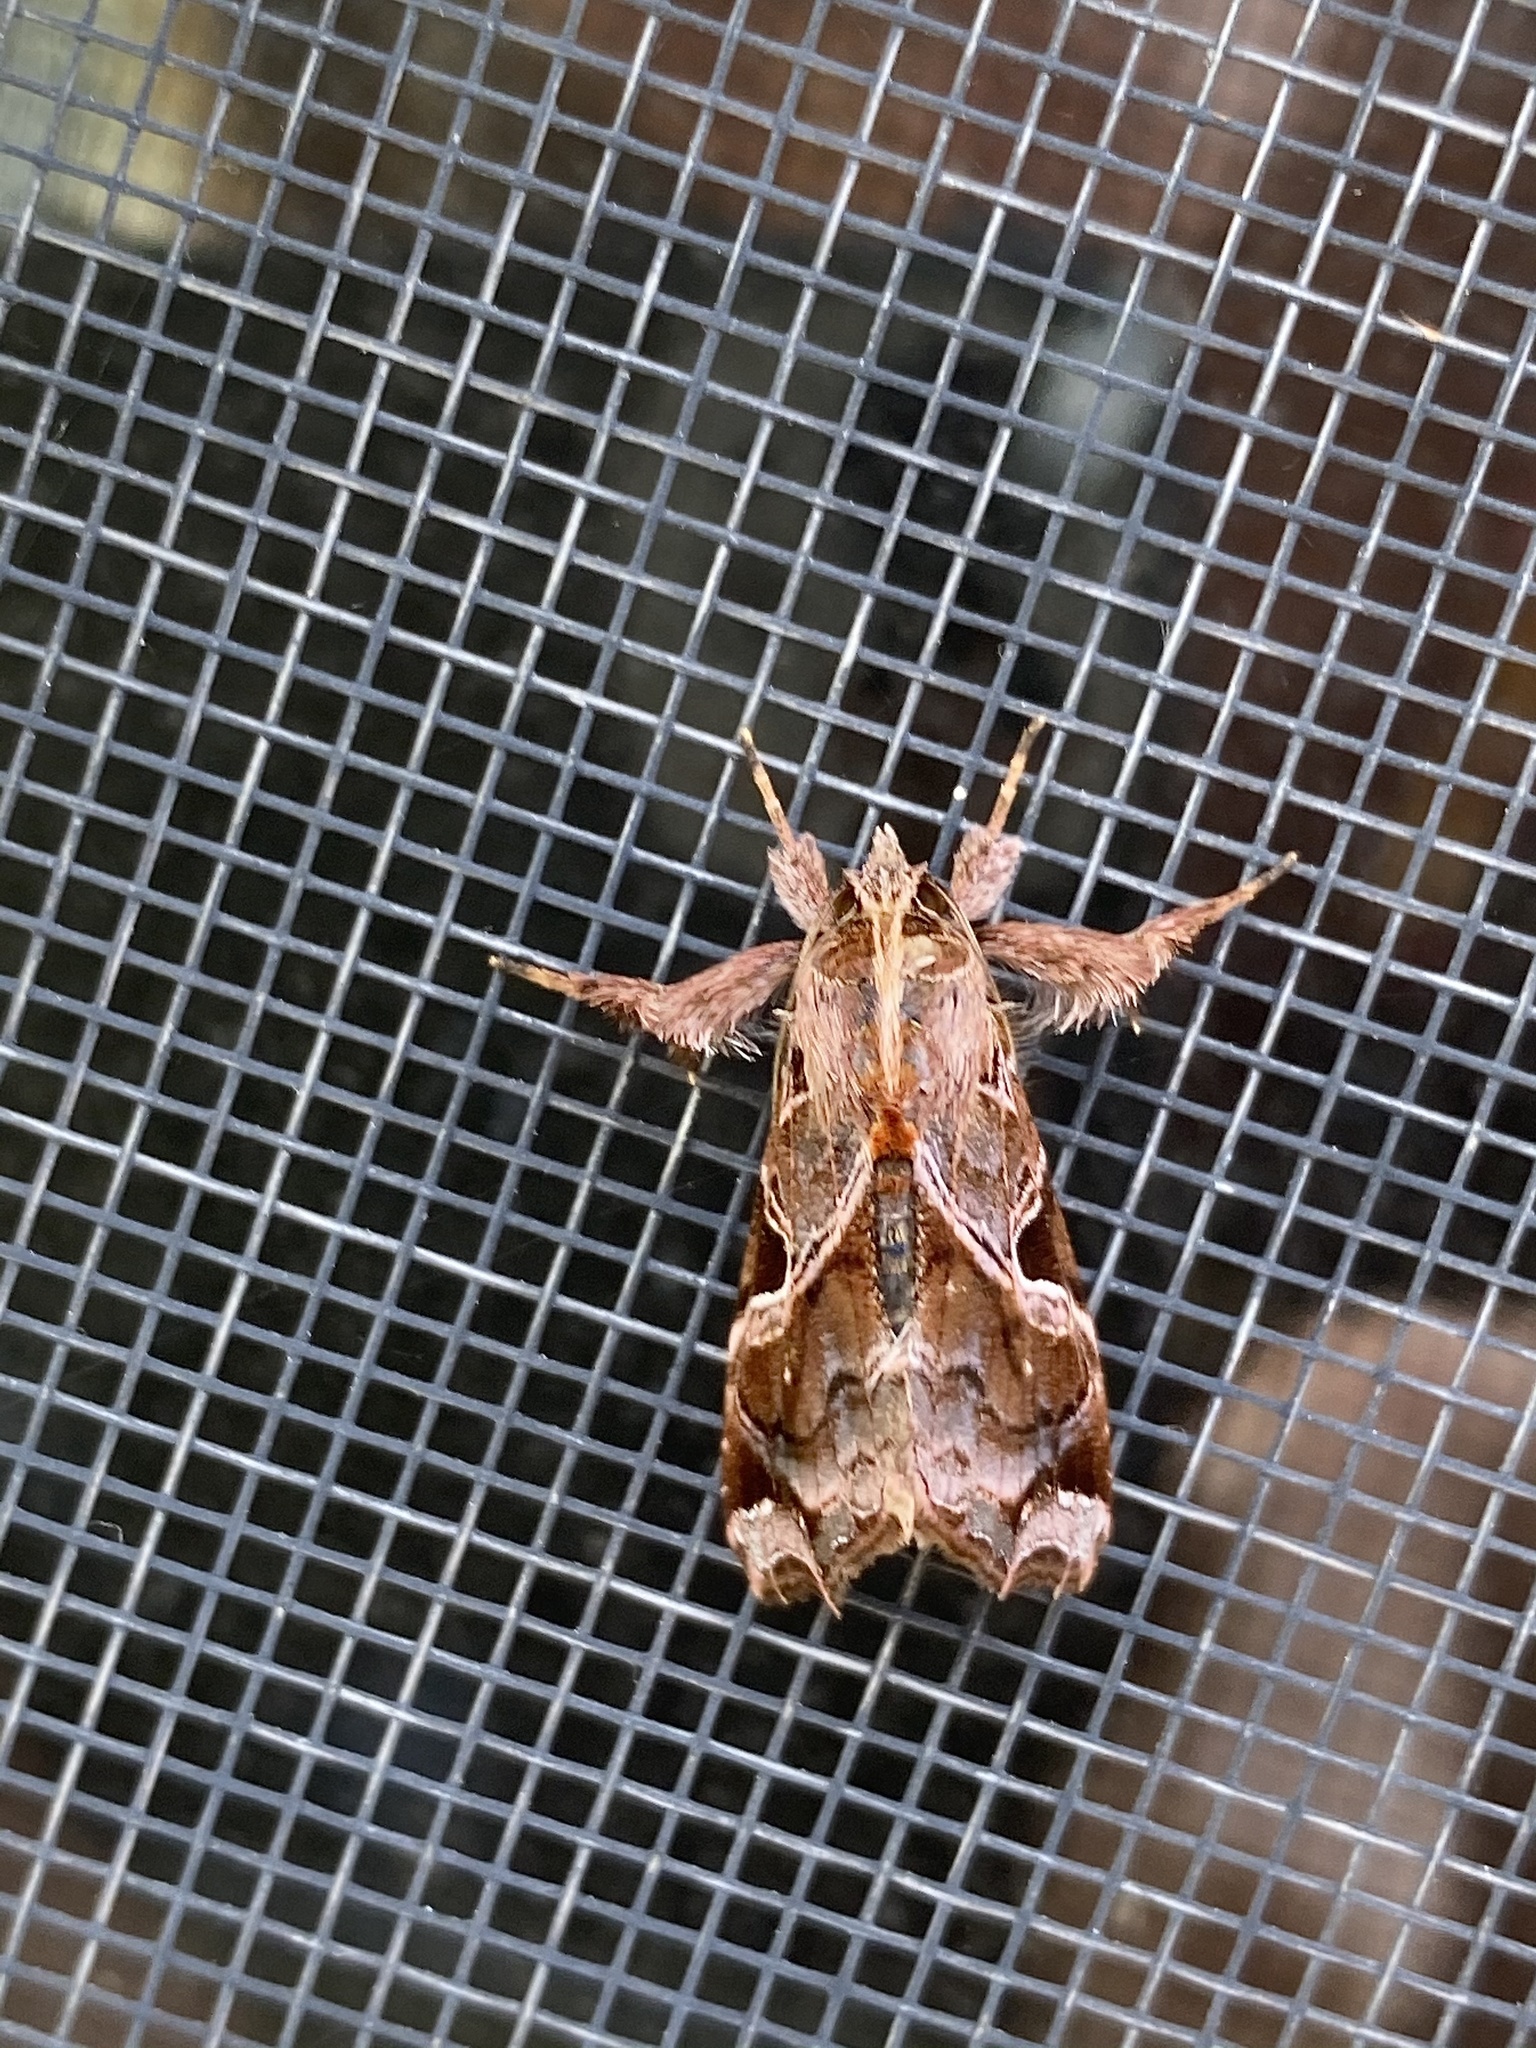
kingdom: Animalia
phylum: Arthropoda
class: Insecta
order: Lepidoptera
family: Noctuidae
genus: Callopistria
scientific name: Callopistria floridensis
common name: Florida fern moth
